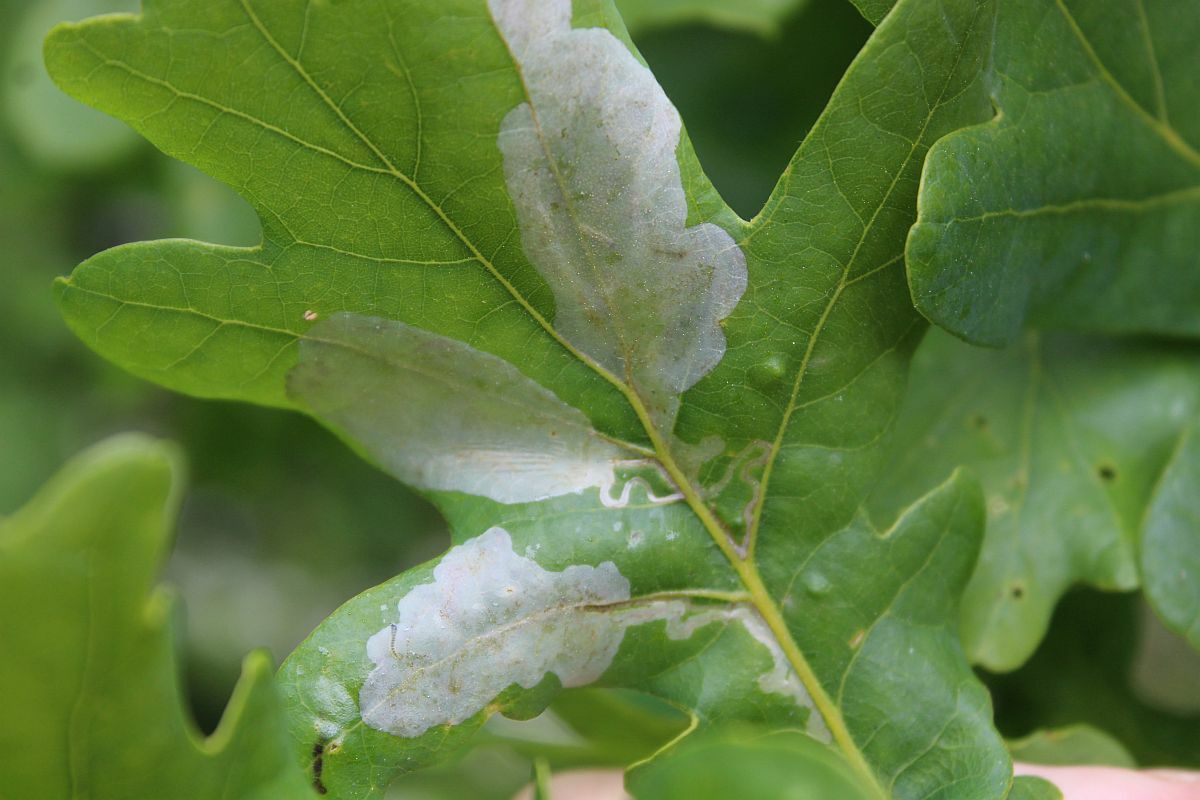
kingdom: Animalia
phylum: Arthropoda
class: Insecta
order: Lepidoptera
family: Gracillariidae
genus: Acrocercops
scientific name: Acrocercops brongniardella
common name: Brown oak slender
